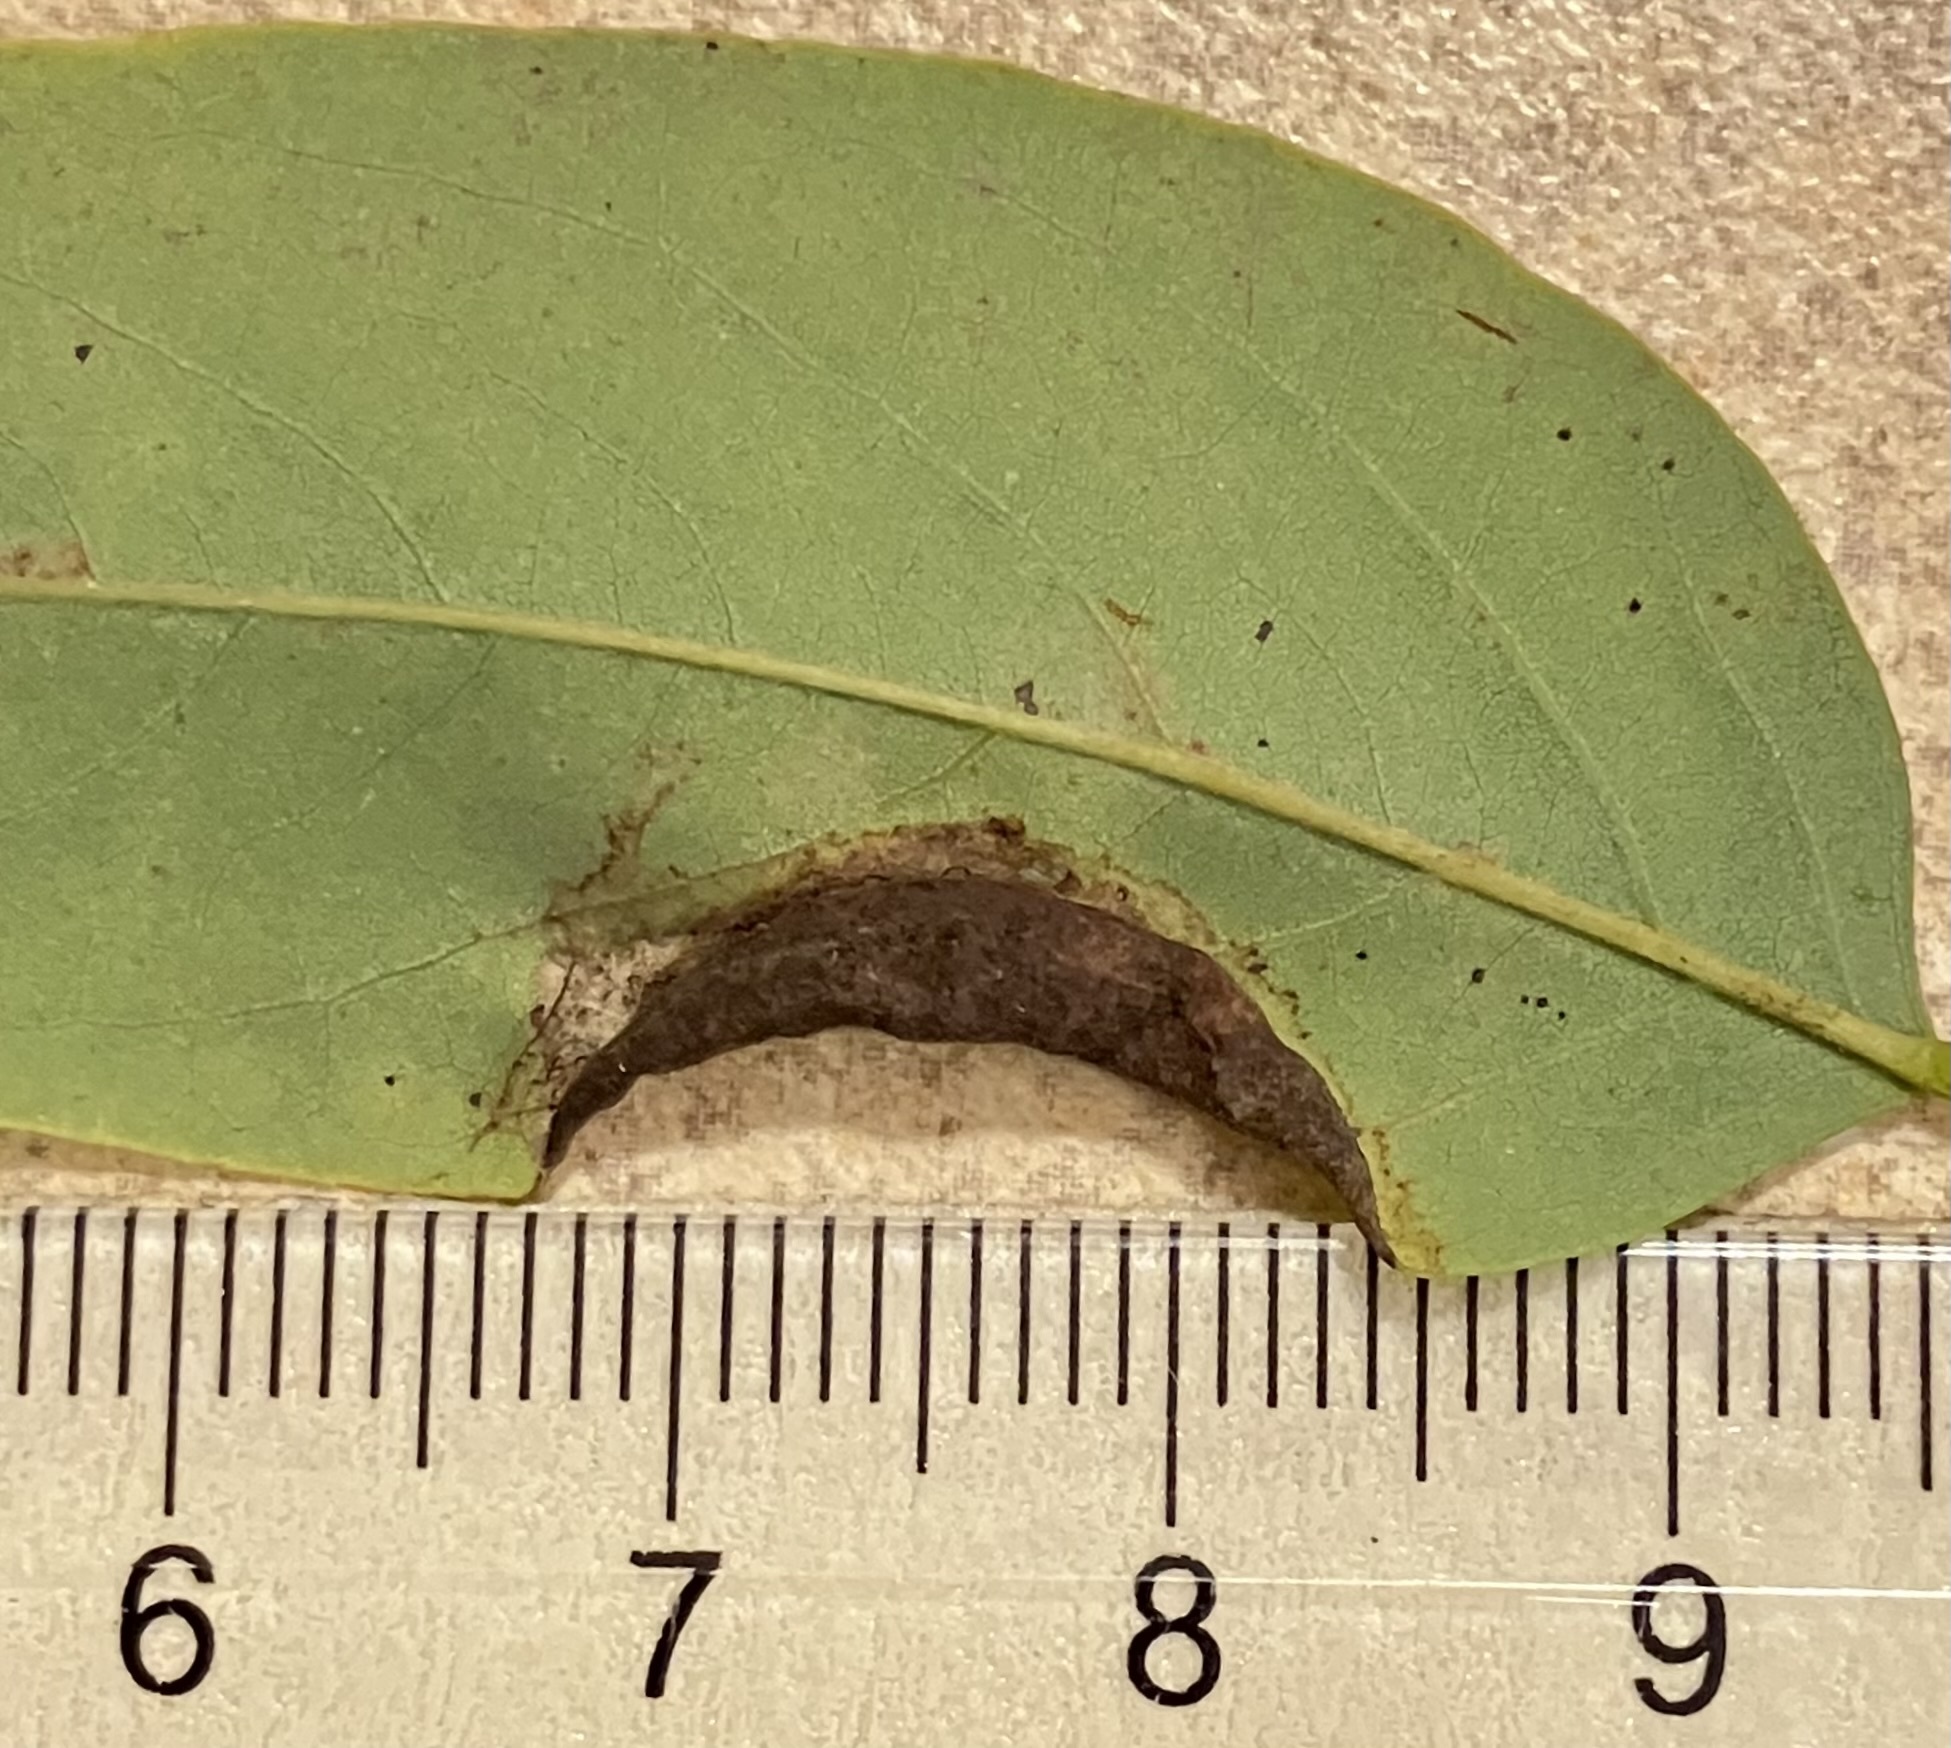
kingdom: Animalia
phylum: Arthropoda
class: Insecta
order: Diptera
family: Cecidomyiidae
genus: Obolodiplosis
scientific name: Obolodiplosis robiniae
